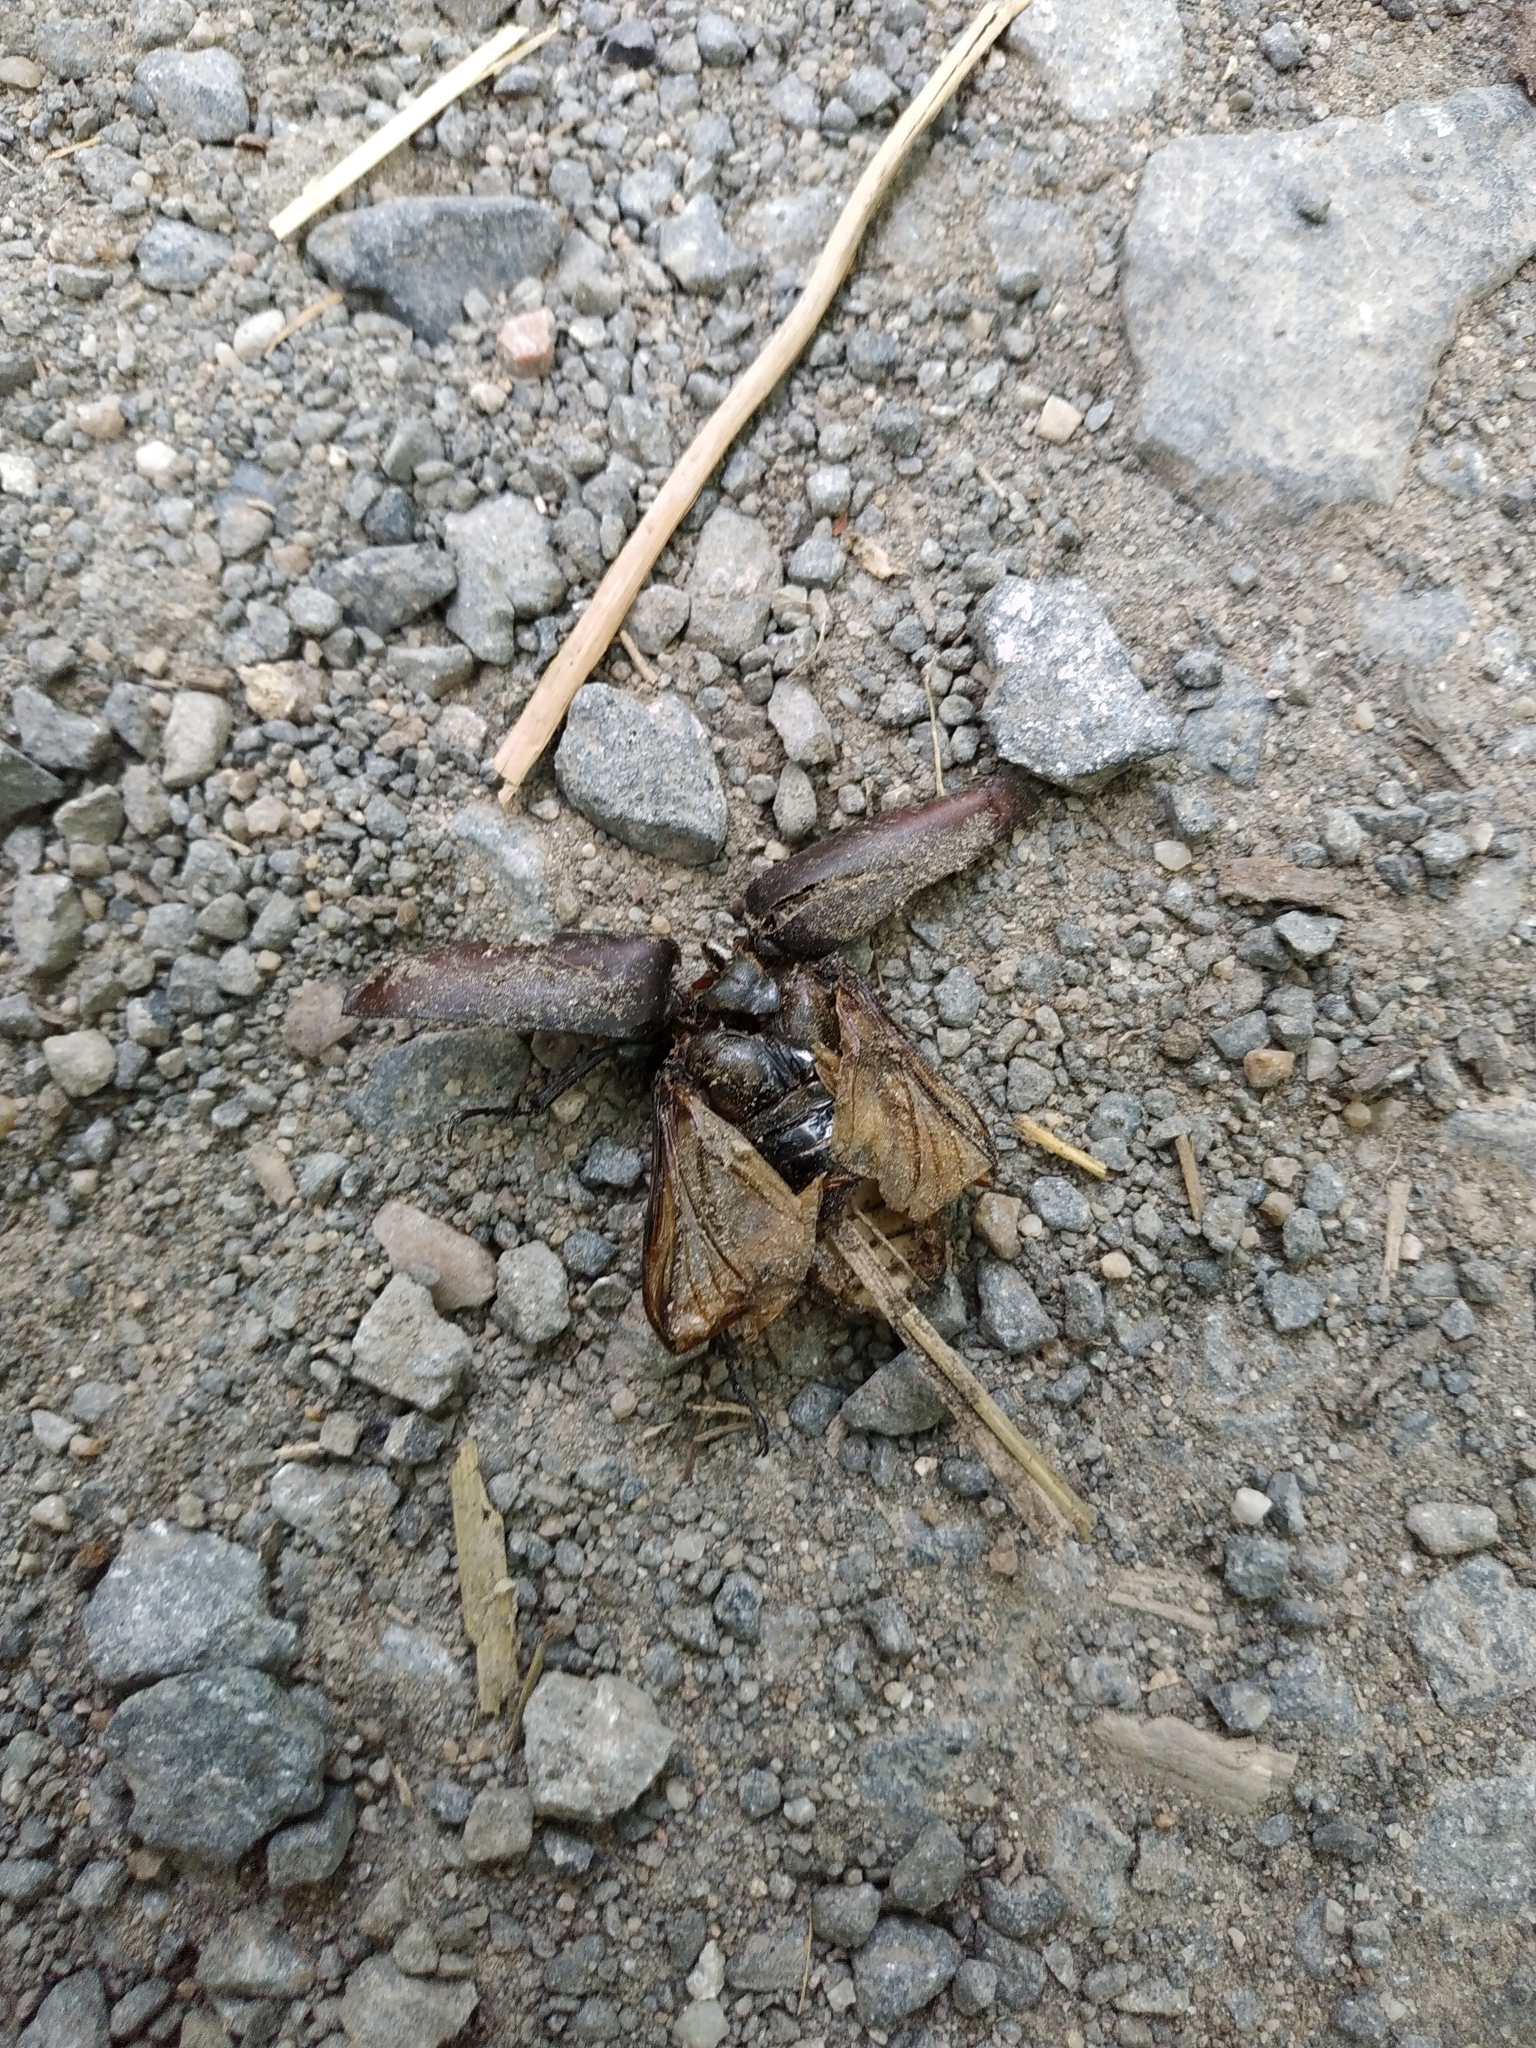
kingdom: Animalia
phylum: Arthropoda
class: Insecta
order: Coleoptera
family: Lucanidae
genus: Lucanus
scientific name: Lucanus cervus
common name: Stag beetle
